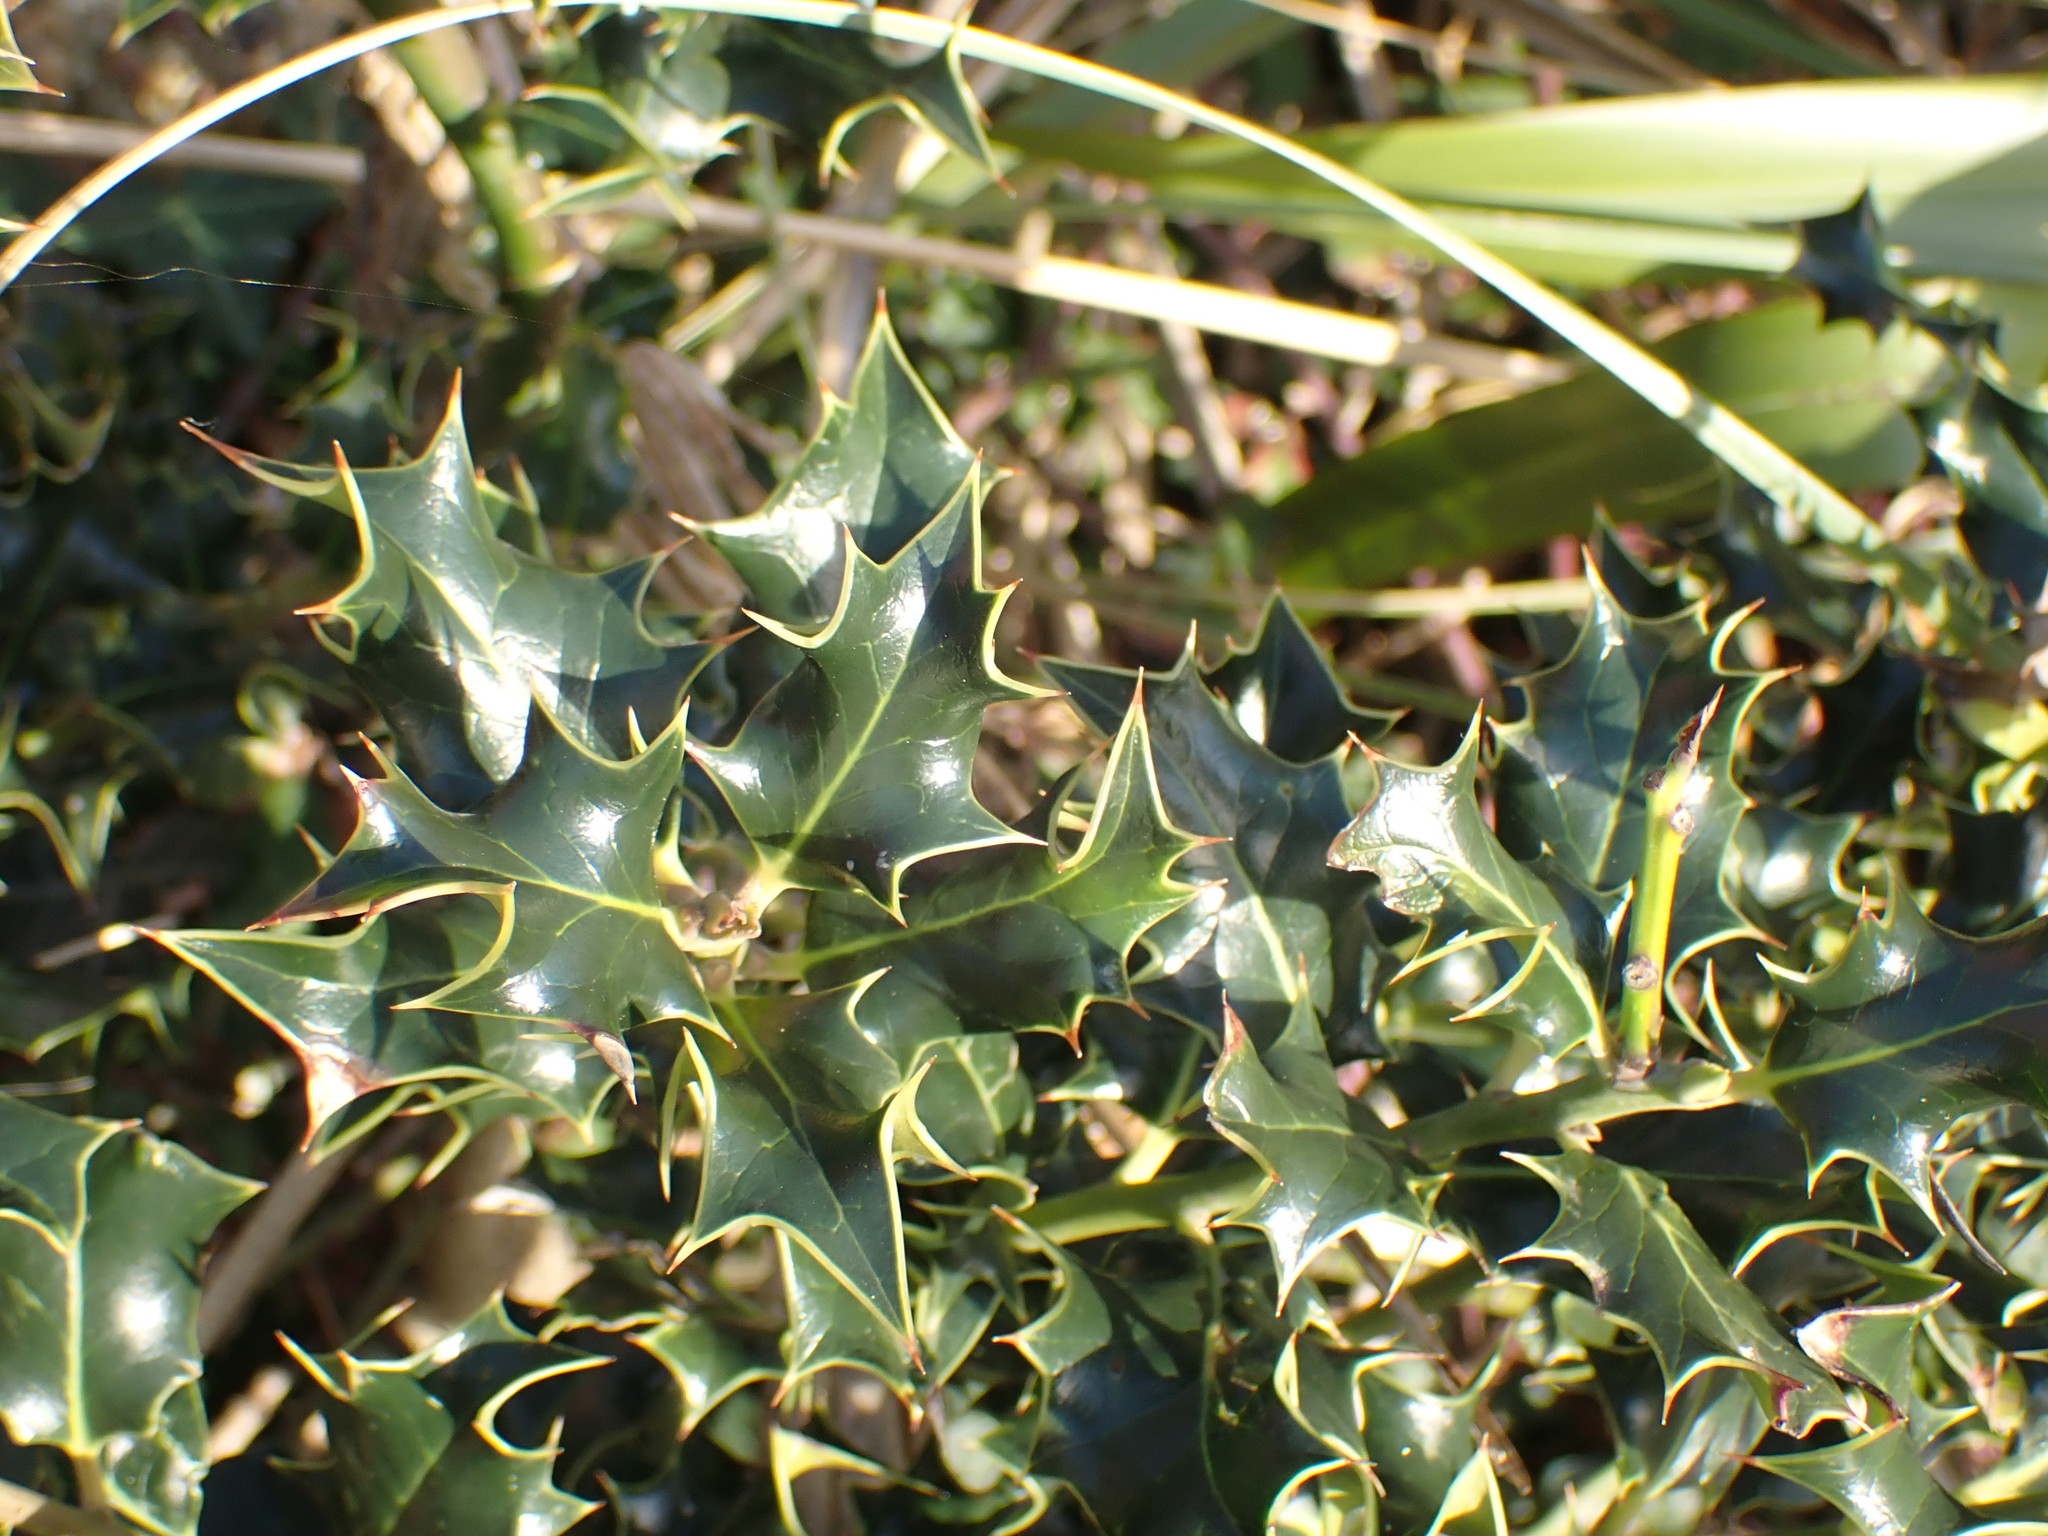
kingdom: Plantae
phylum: Tracheophyta
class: Magnoliopsida
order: Aquifoliales
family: Aquifoliaceae
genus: Ilex
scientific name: Ilex aquifolium
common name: English holly
